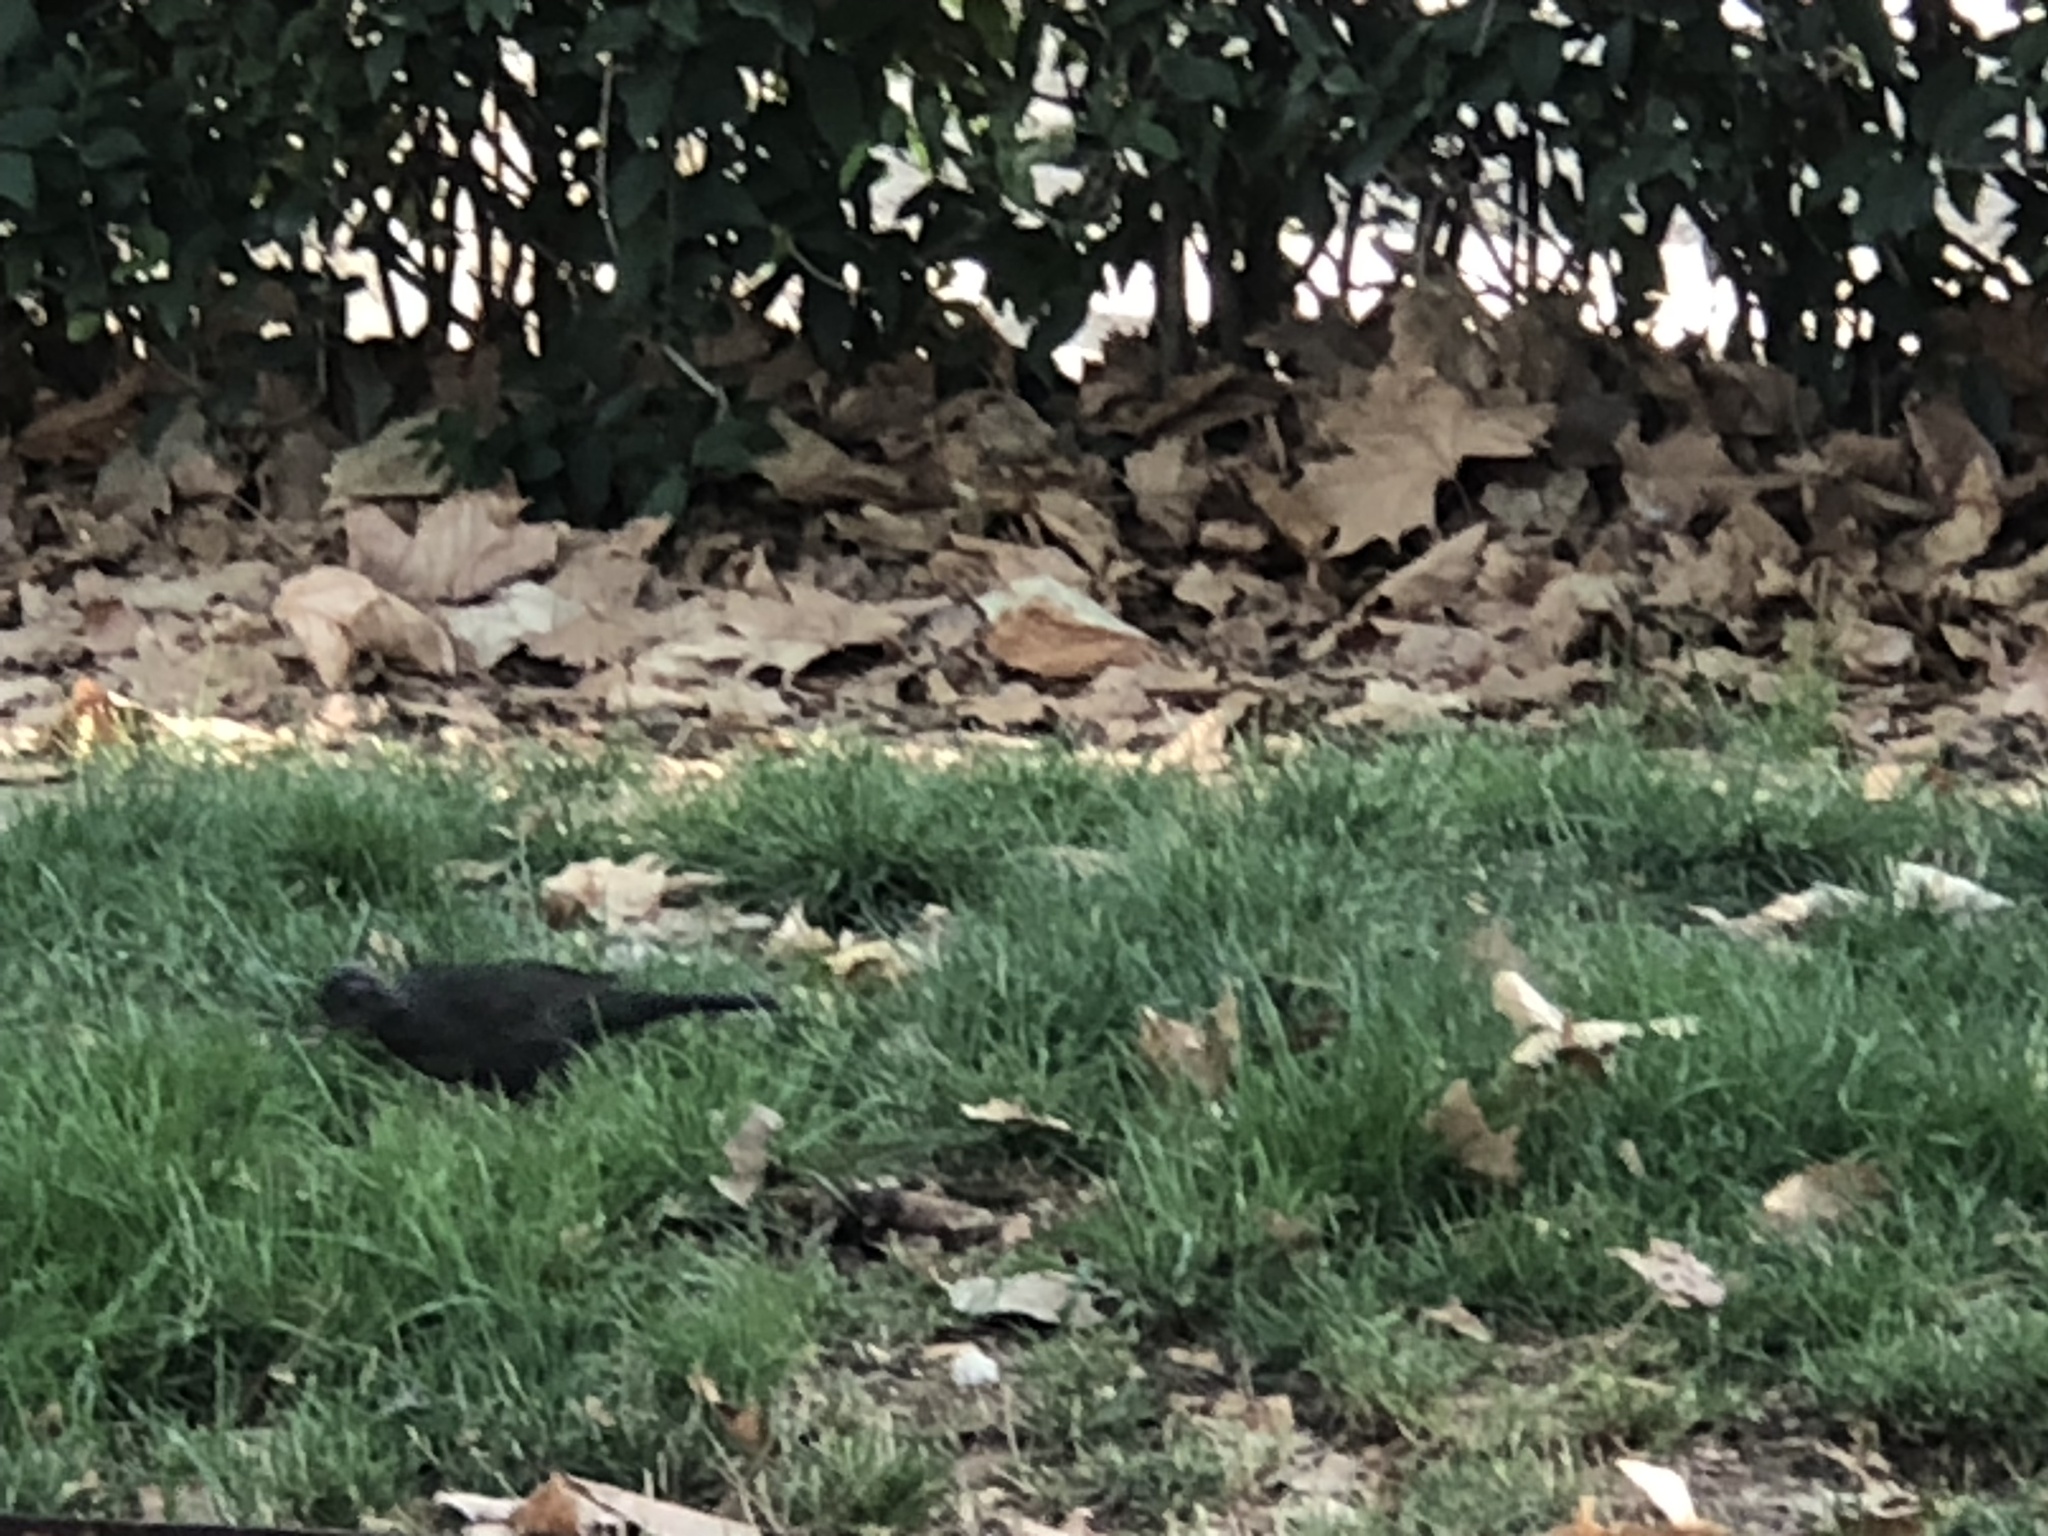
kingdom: Animalia
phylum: Chordata
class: Aves
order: Passeriformes
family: Turdidae
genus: Turdus
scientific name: Turdus merula
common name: Common blackbird
